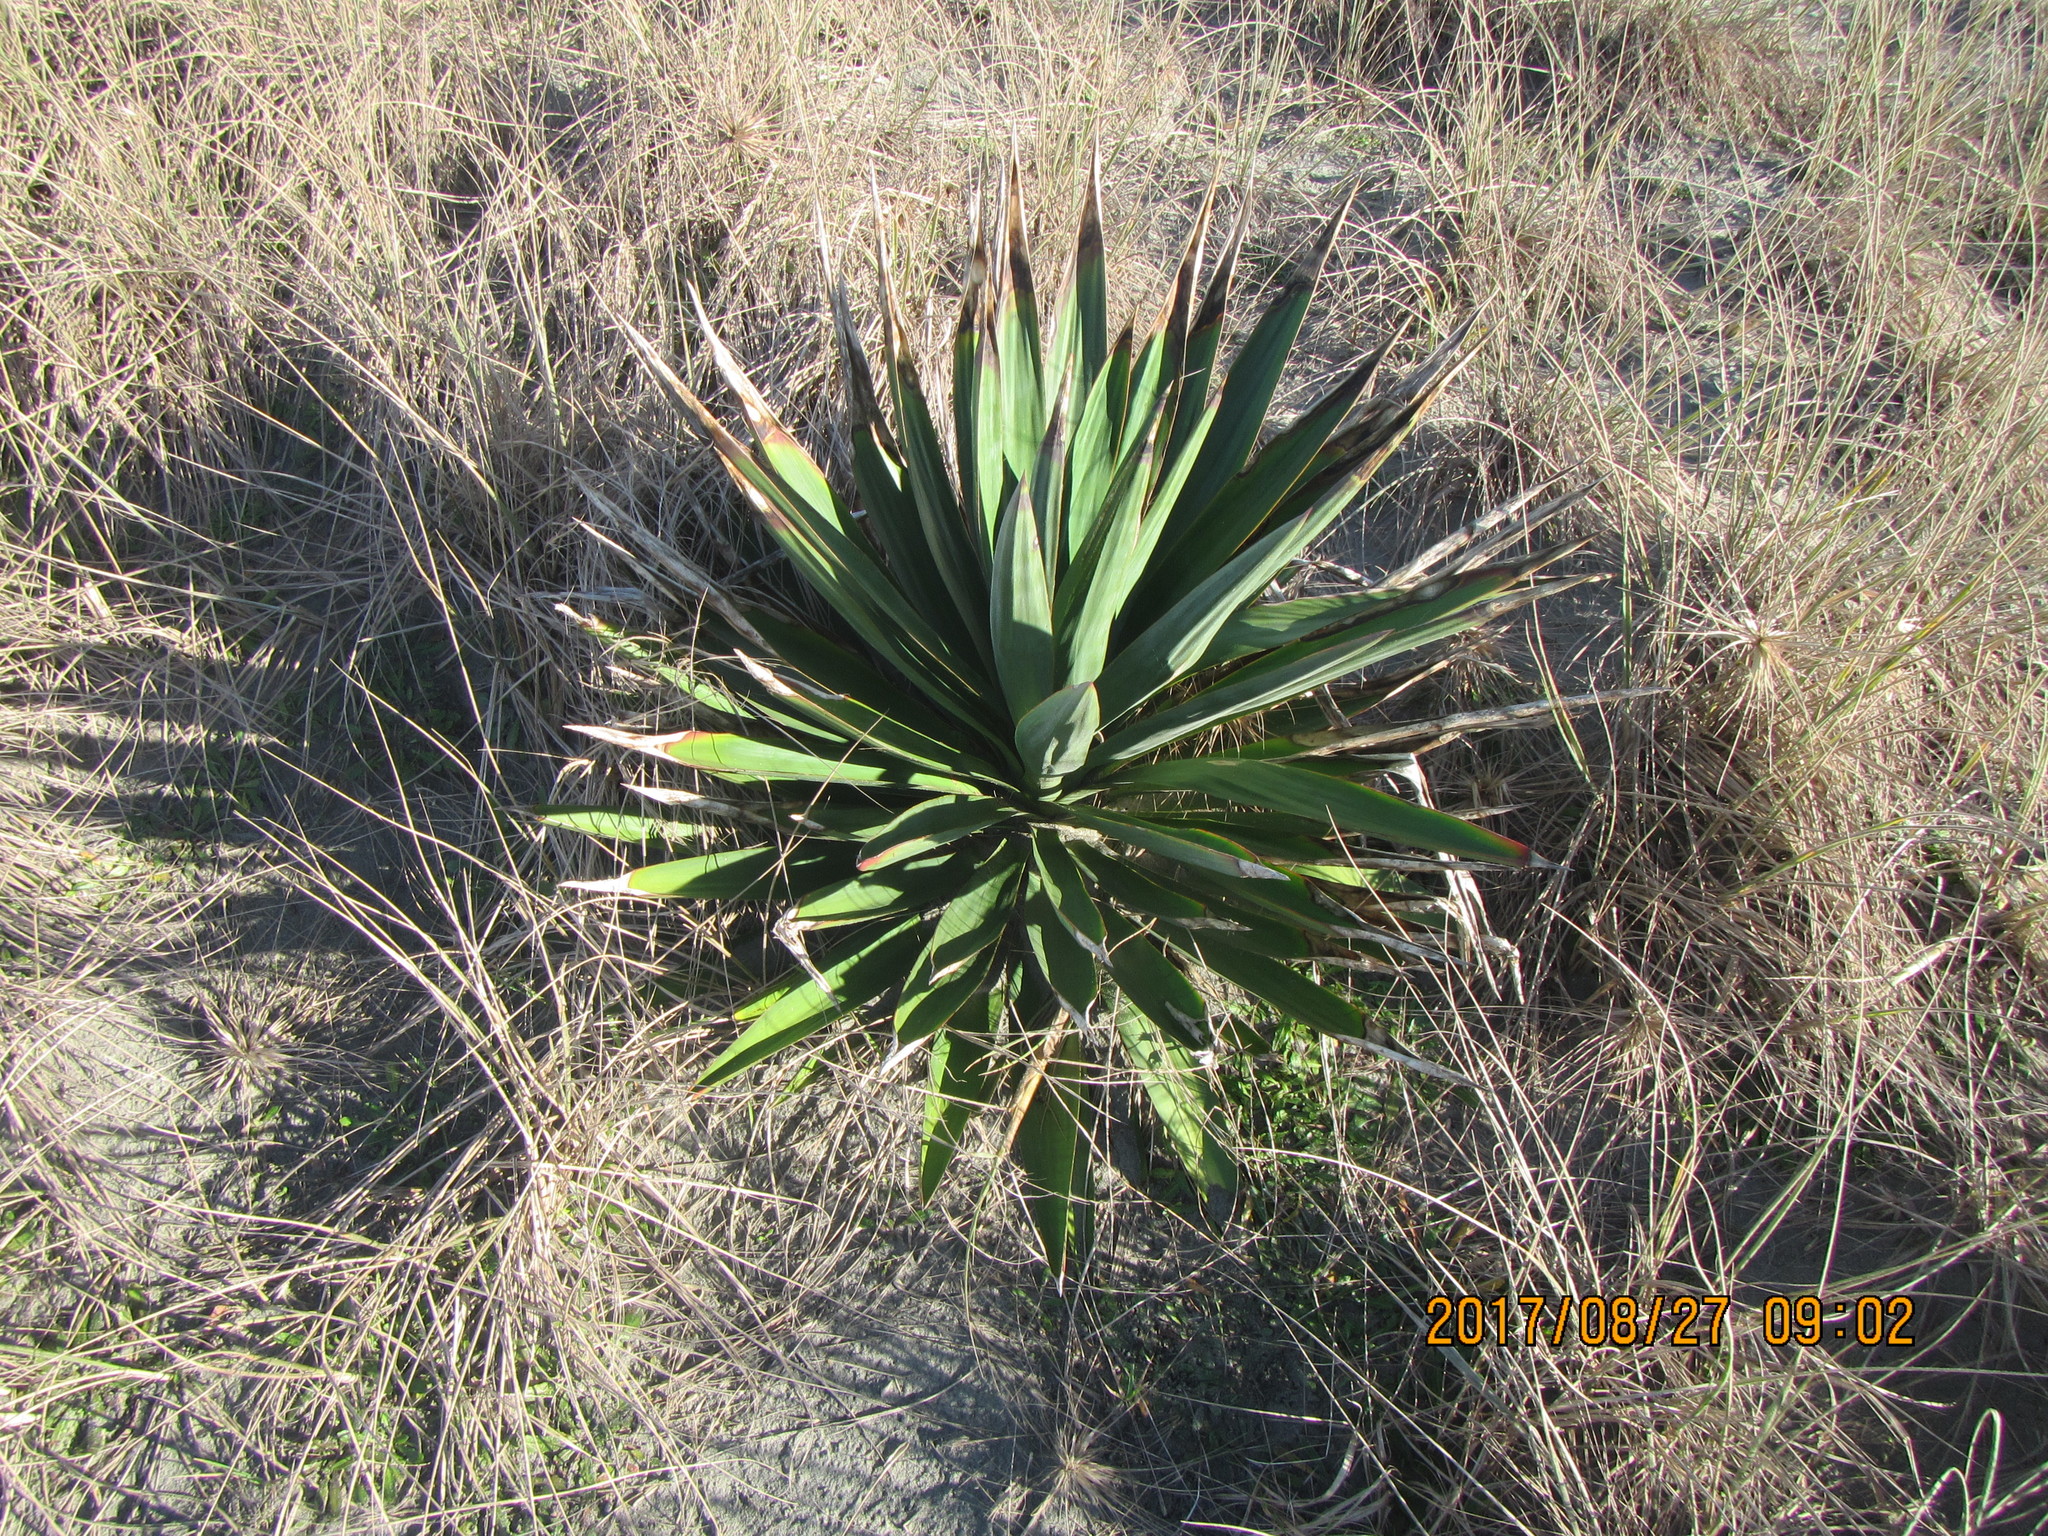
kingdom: Plantae
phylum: Tracheophyta
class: Liliopsida
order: Asparagales
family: Asparagaceae
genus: Yucca
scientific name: Yucca gloriosa
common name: Spanish-dagger
